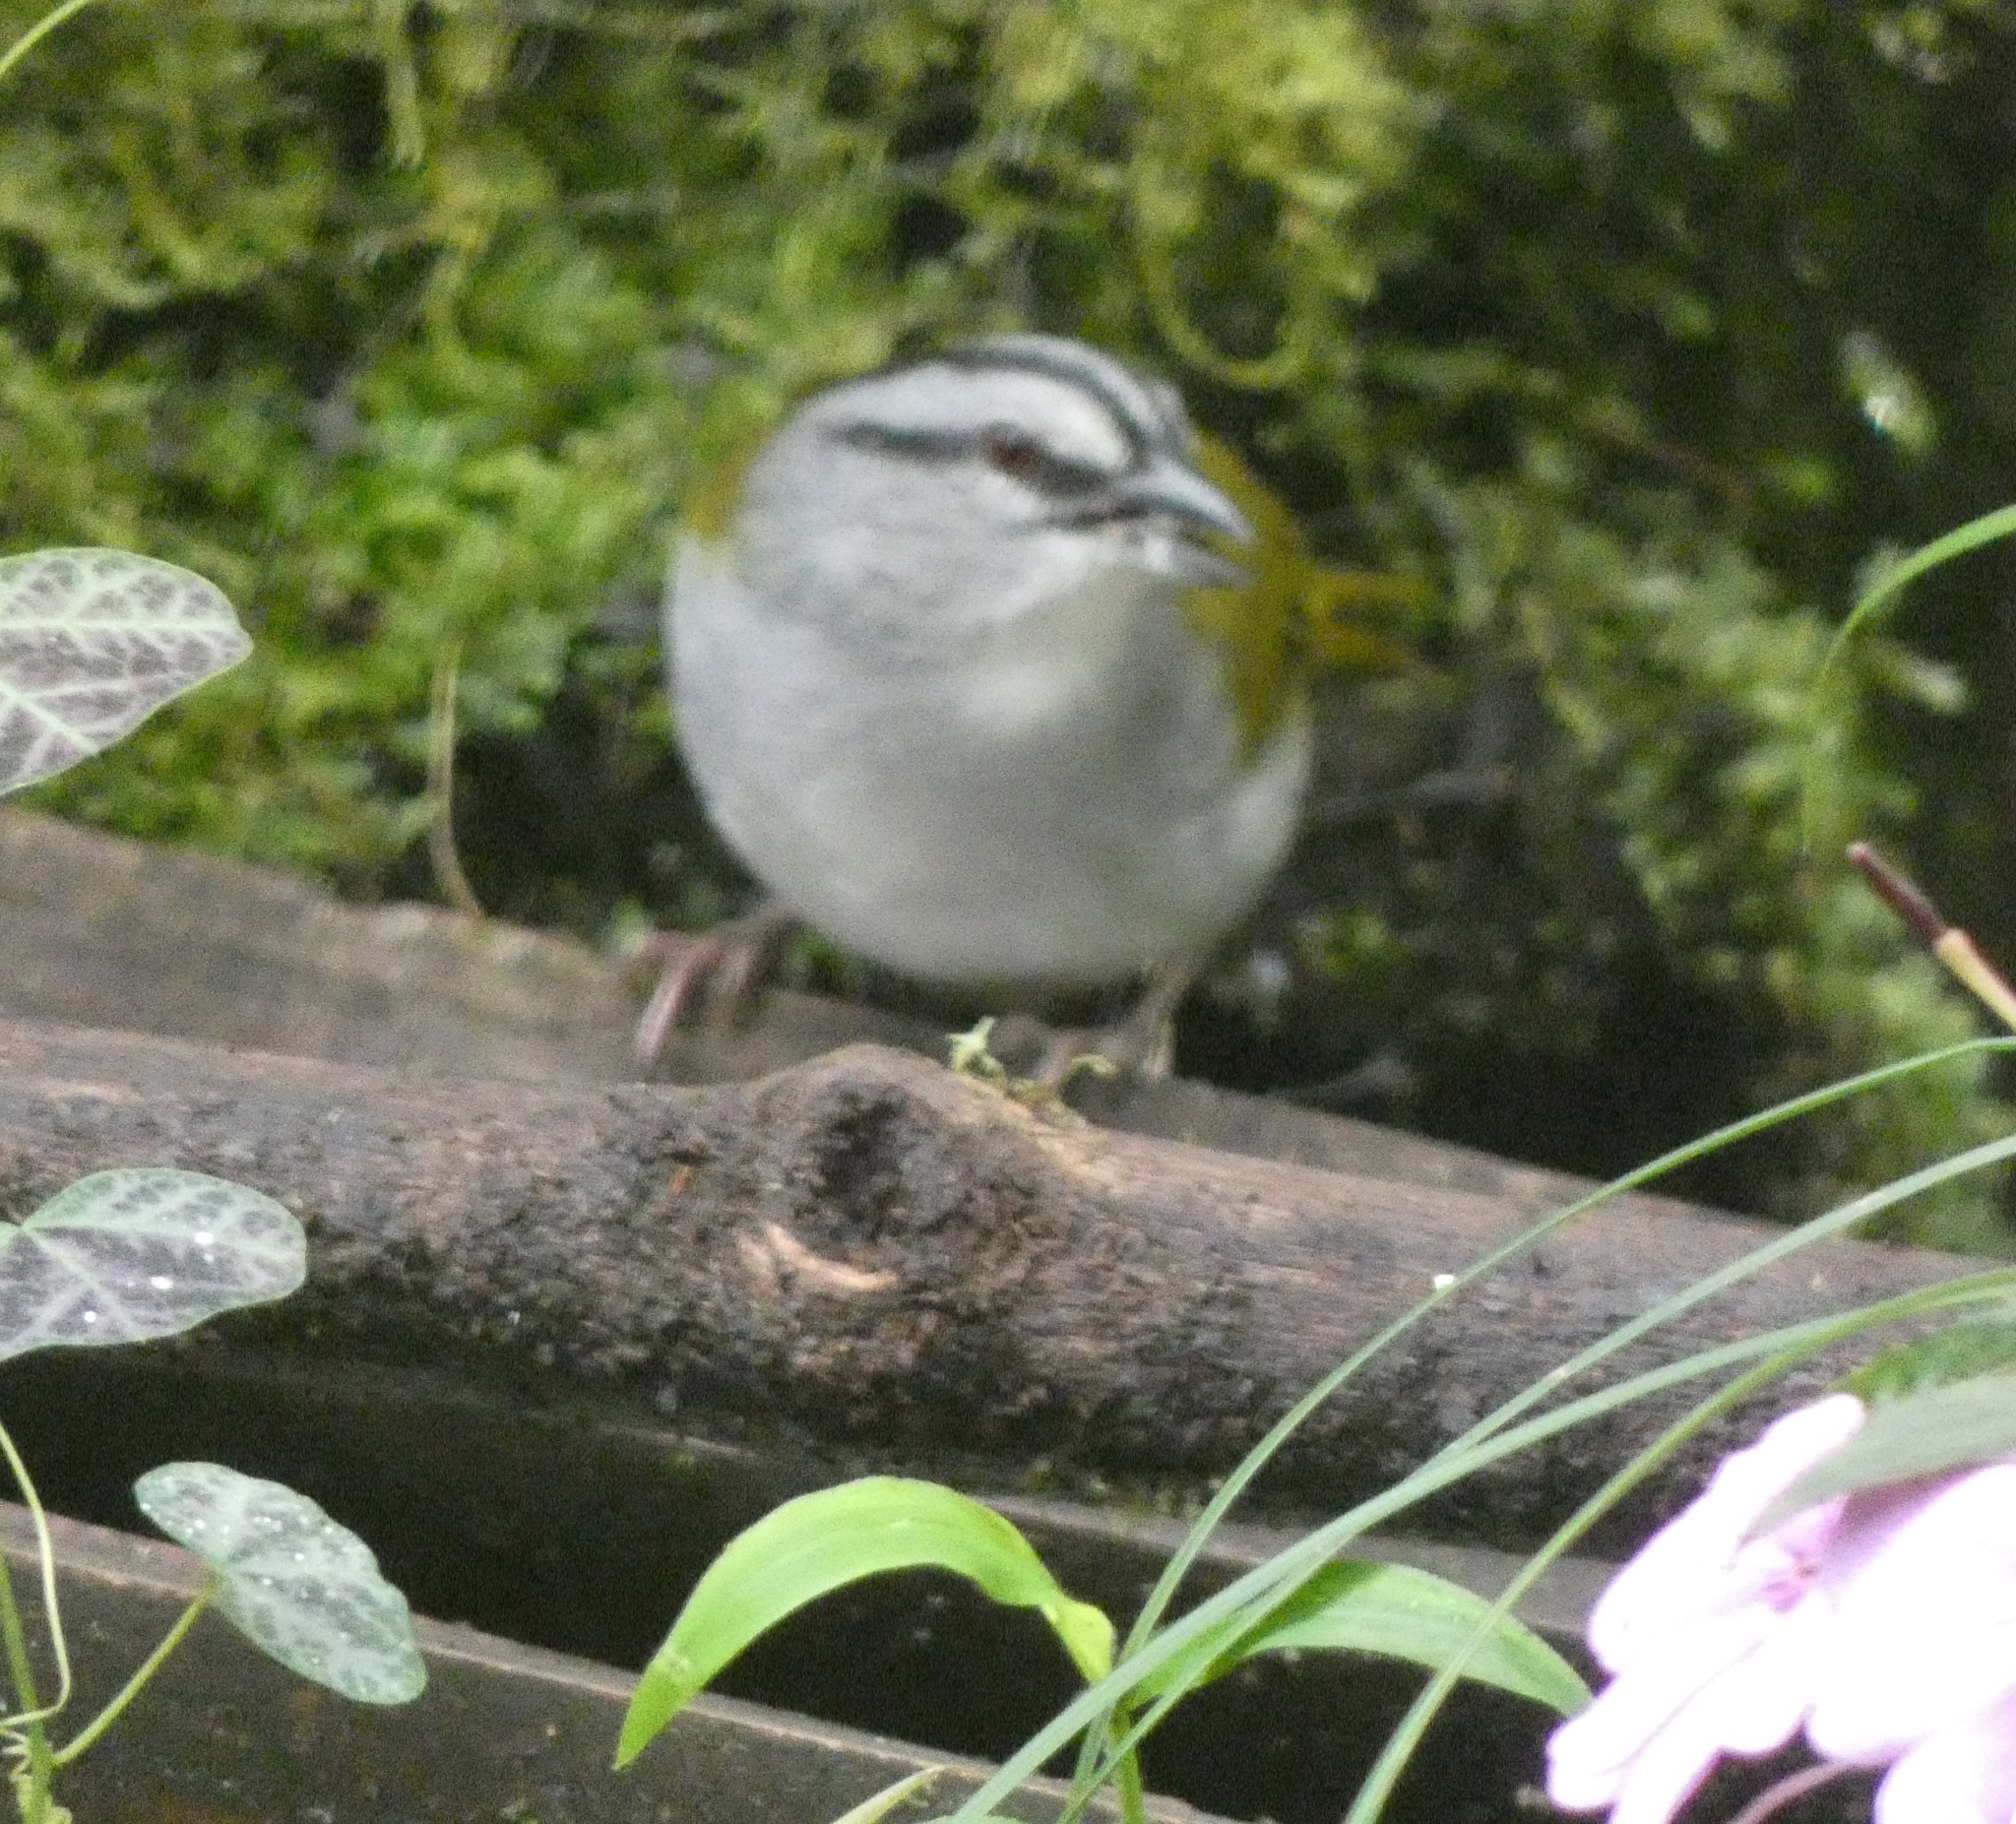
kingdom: Animalia
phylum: Chordata
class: Aves
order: Passeriformes
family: Passerellidae
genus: Arremonops
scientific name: Arremonops conirostris
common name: Black-striped sparrow
